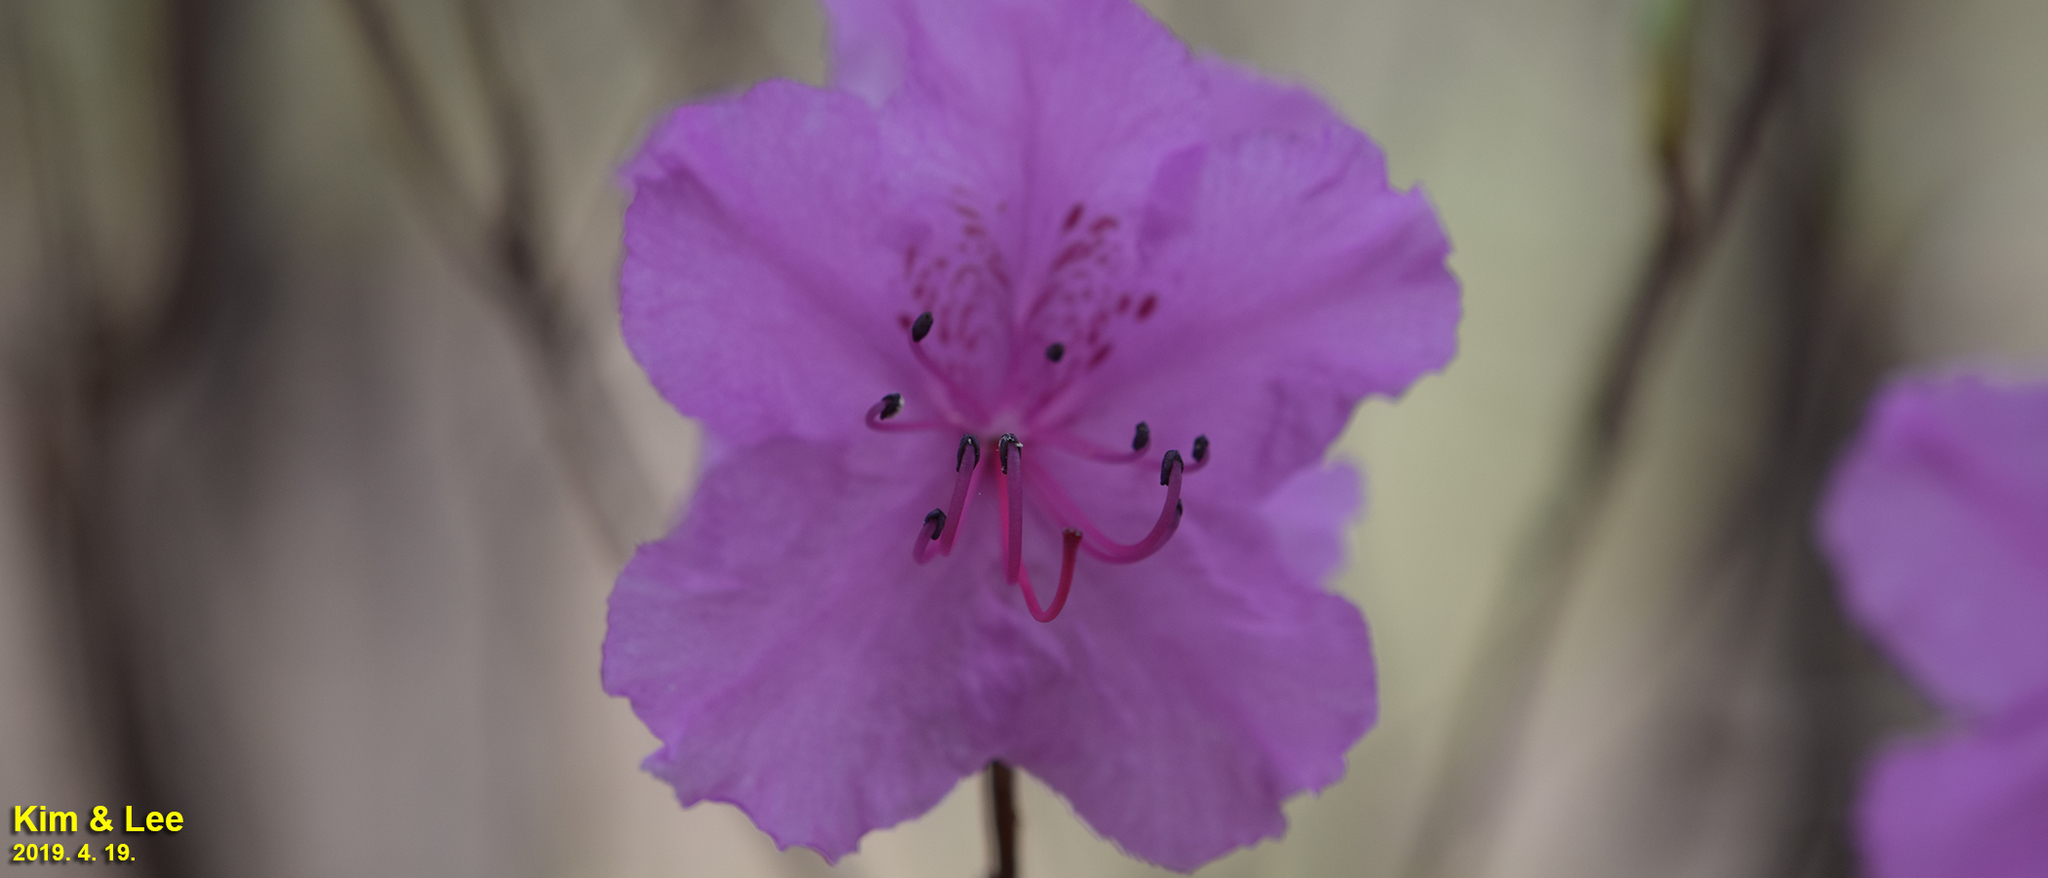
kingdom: Plantae
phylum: Tracheophyta
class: Magnoliopsida
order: Ericales
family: Ericaceae
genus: Rhododendron
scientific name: Rhododendron mucronulatum
